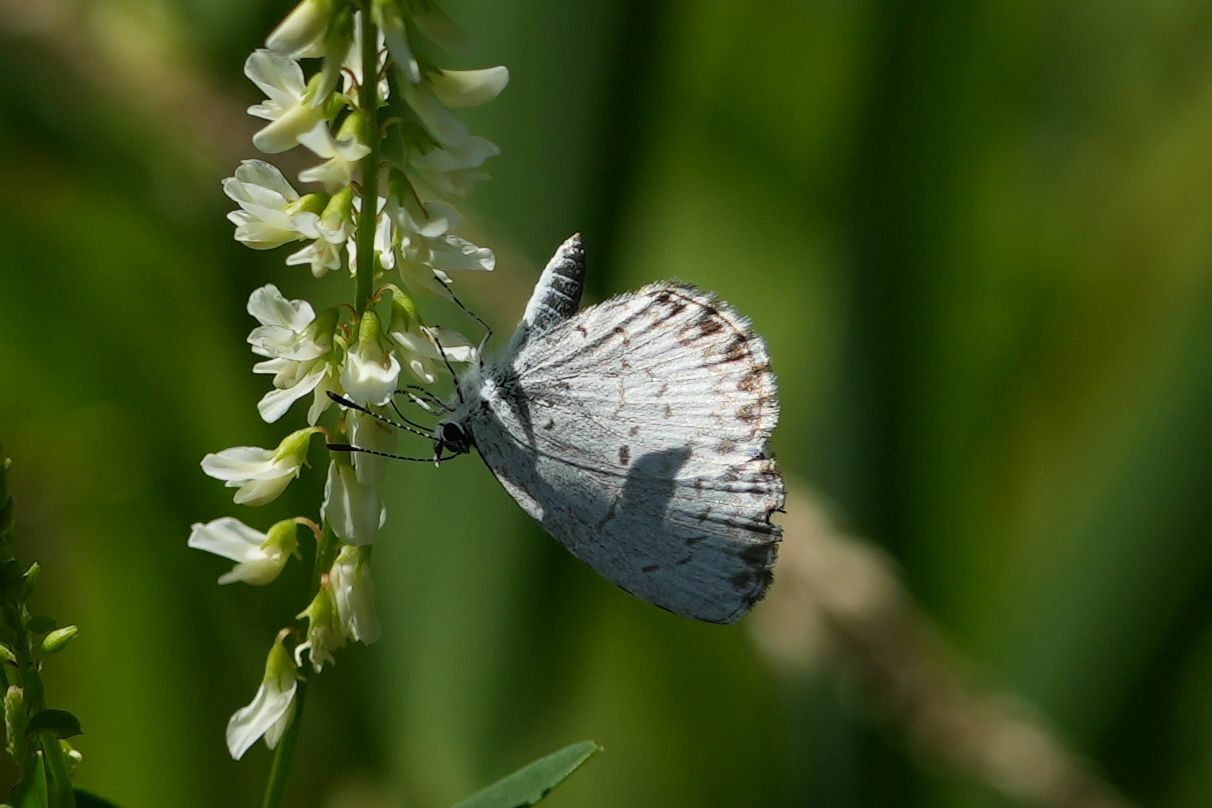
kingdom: Animalia
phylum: Arthropoda
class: Insecta
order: Lepidoptera
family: Lycaenidae
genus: Celastrina
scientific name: Celastrina lucia
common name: Lucia azure
